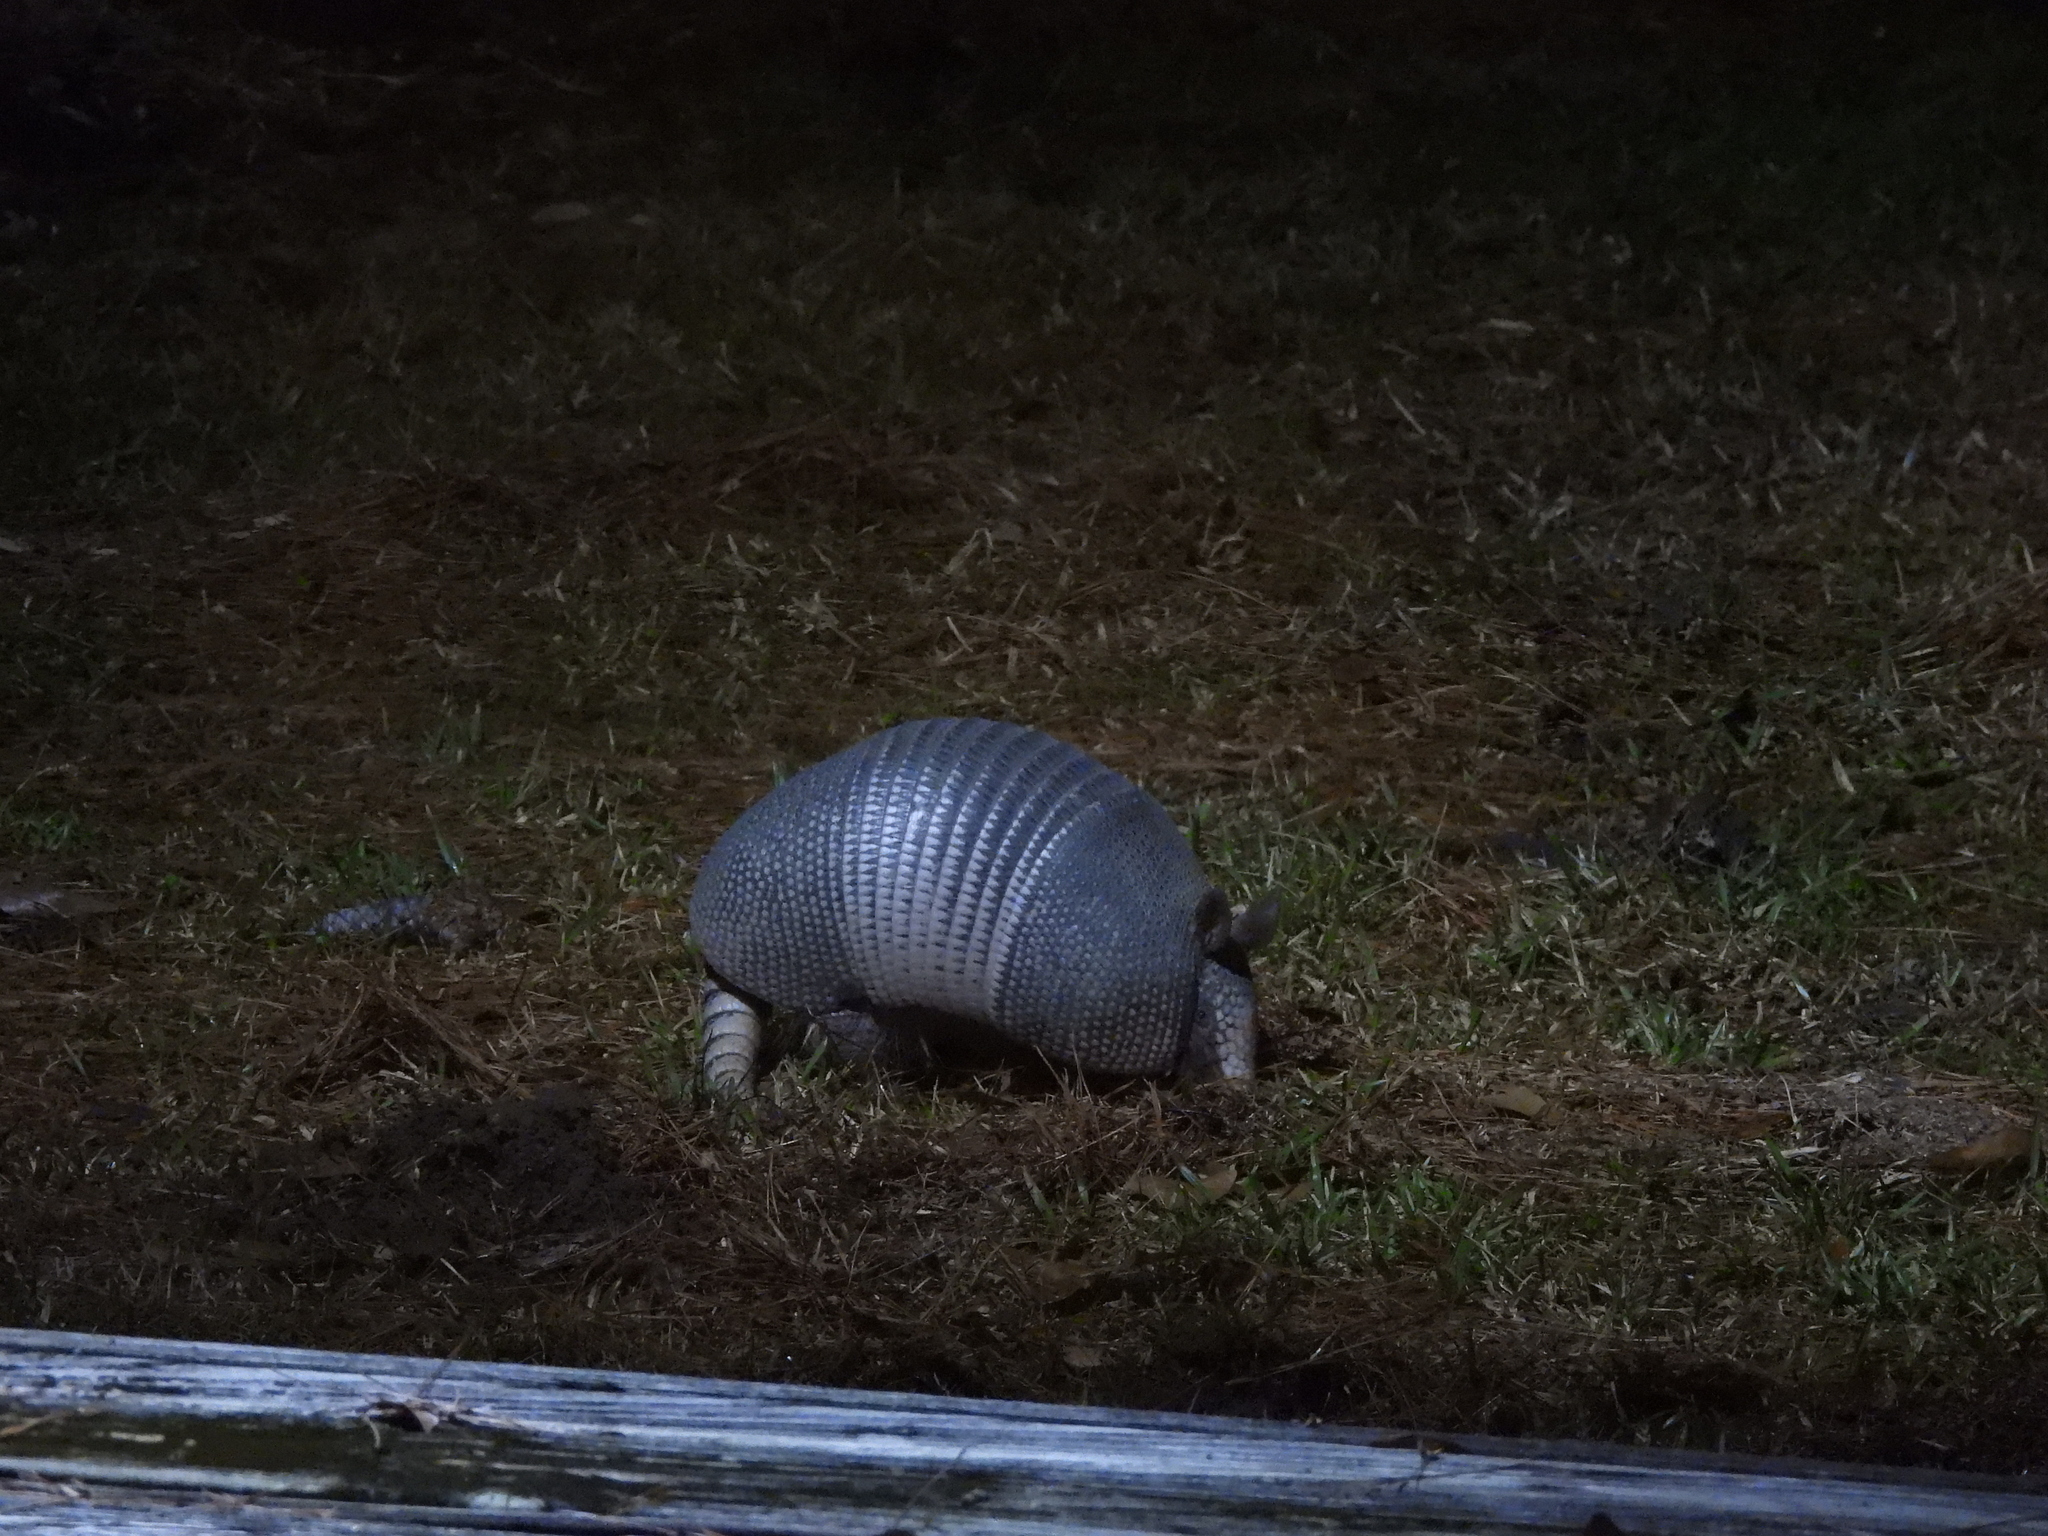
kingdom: Animalia
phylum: Chordata
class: Mammalia
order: Cingulata
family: Dasypodidae
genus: Dasypus
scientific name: Dasypus novemcinctus
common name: Nine-banded armadillo
